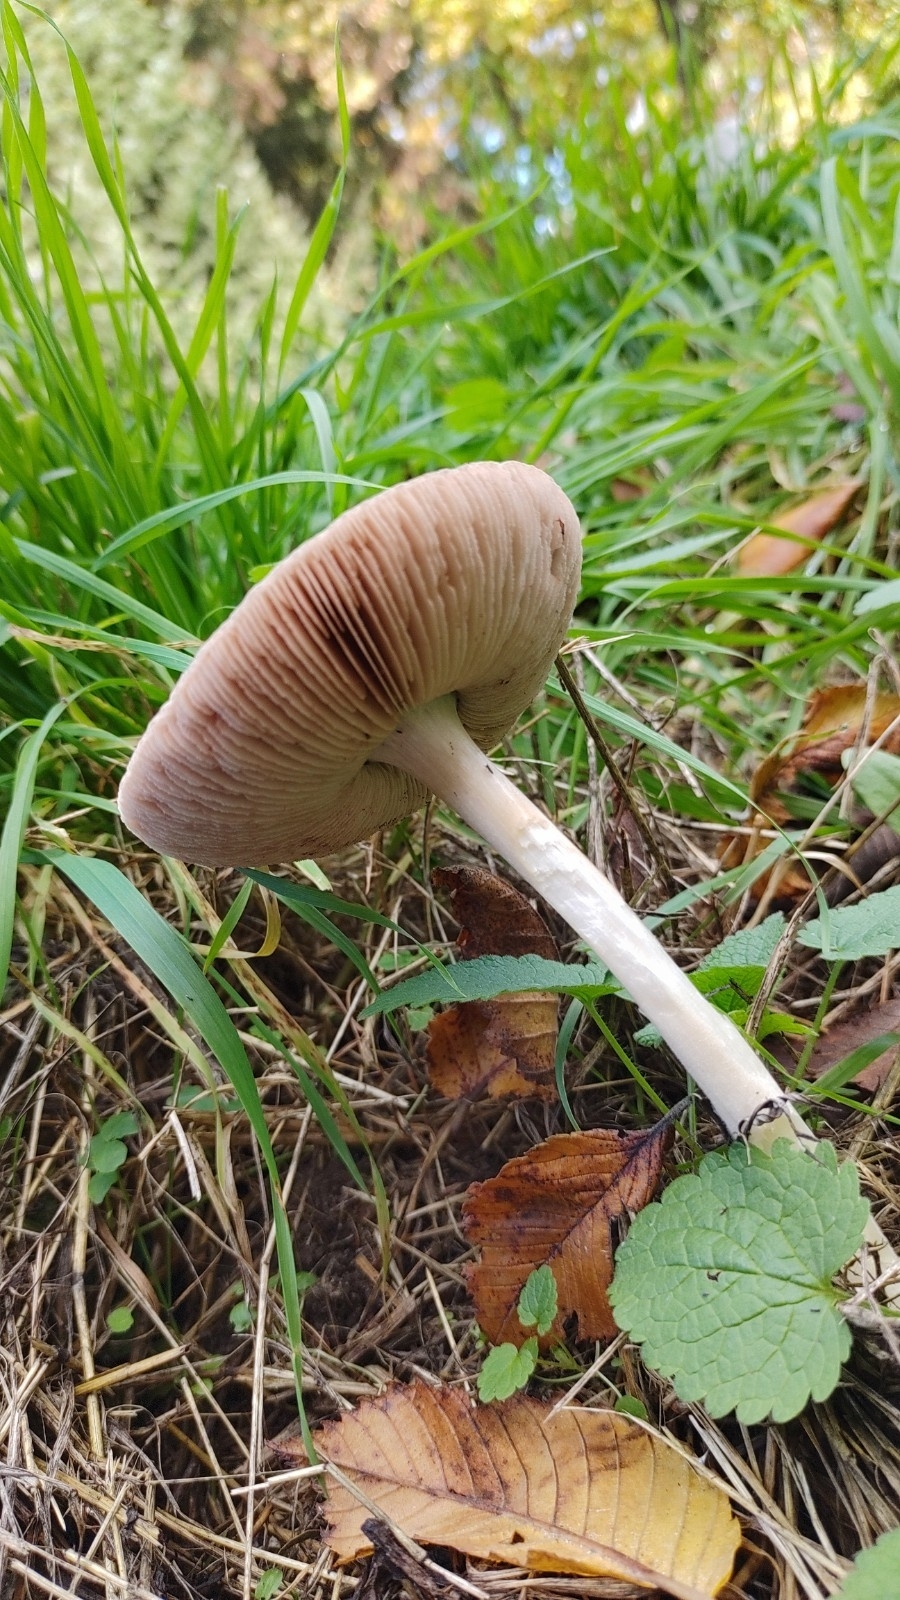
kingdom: Fungi
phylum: Basidiomycota
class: Agaricomycetes
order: Agaricales
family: Pluteaceae
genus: Volvopluteus
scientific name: Volvopluteus gloiocephalus
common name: Stubble rosegill
